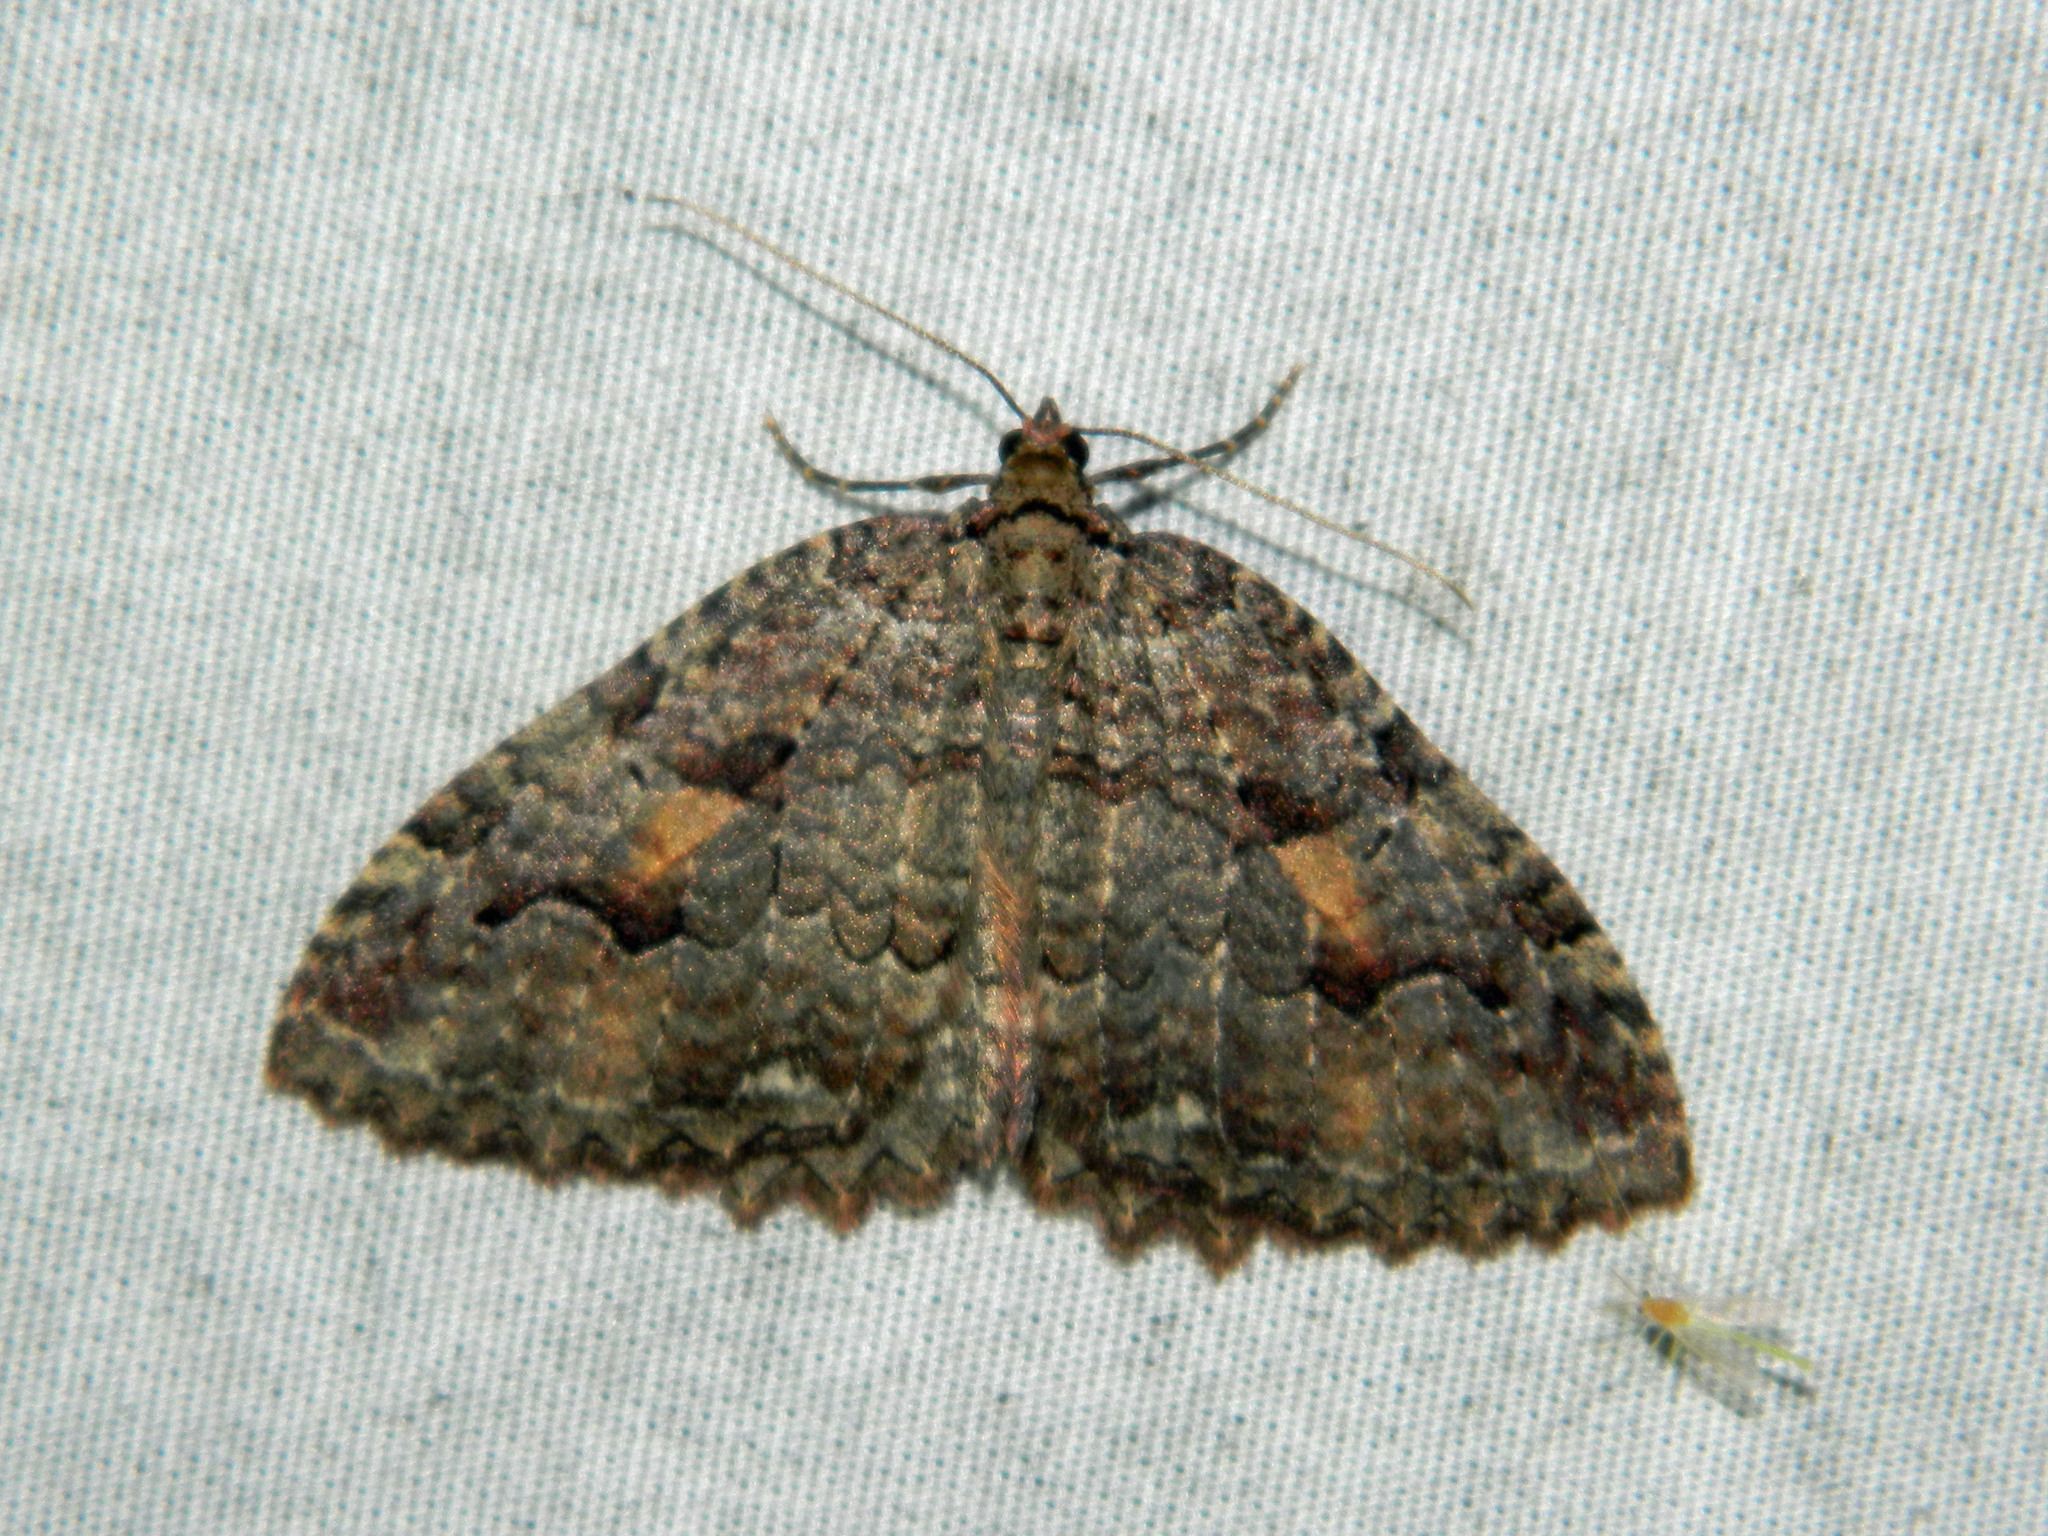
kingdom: Animalia
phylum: Arthropoda
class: Insecta
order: Lepidoptera
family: Geometridae
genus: Triphosa
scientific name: Triphosa haesitata
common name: Tissue moth
